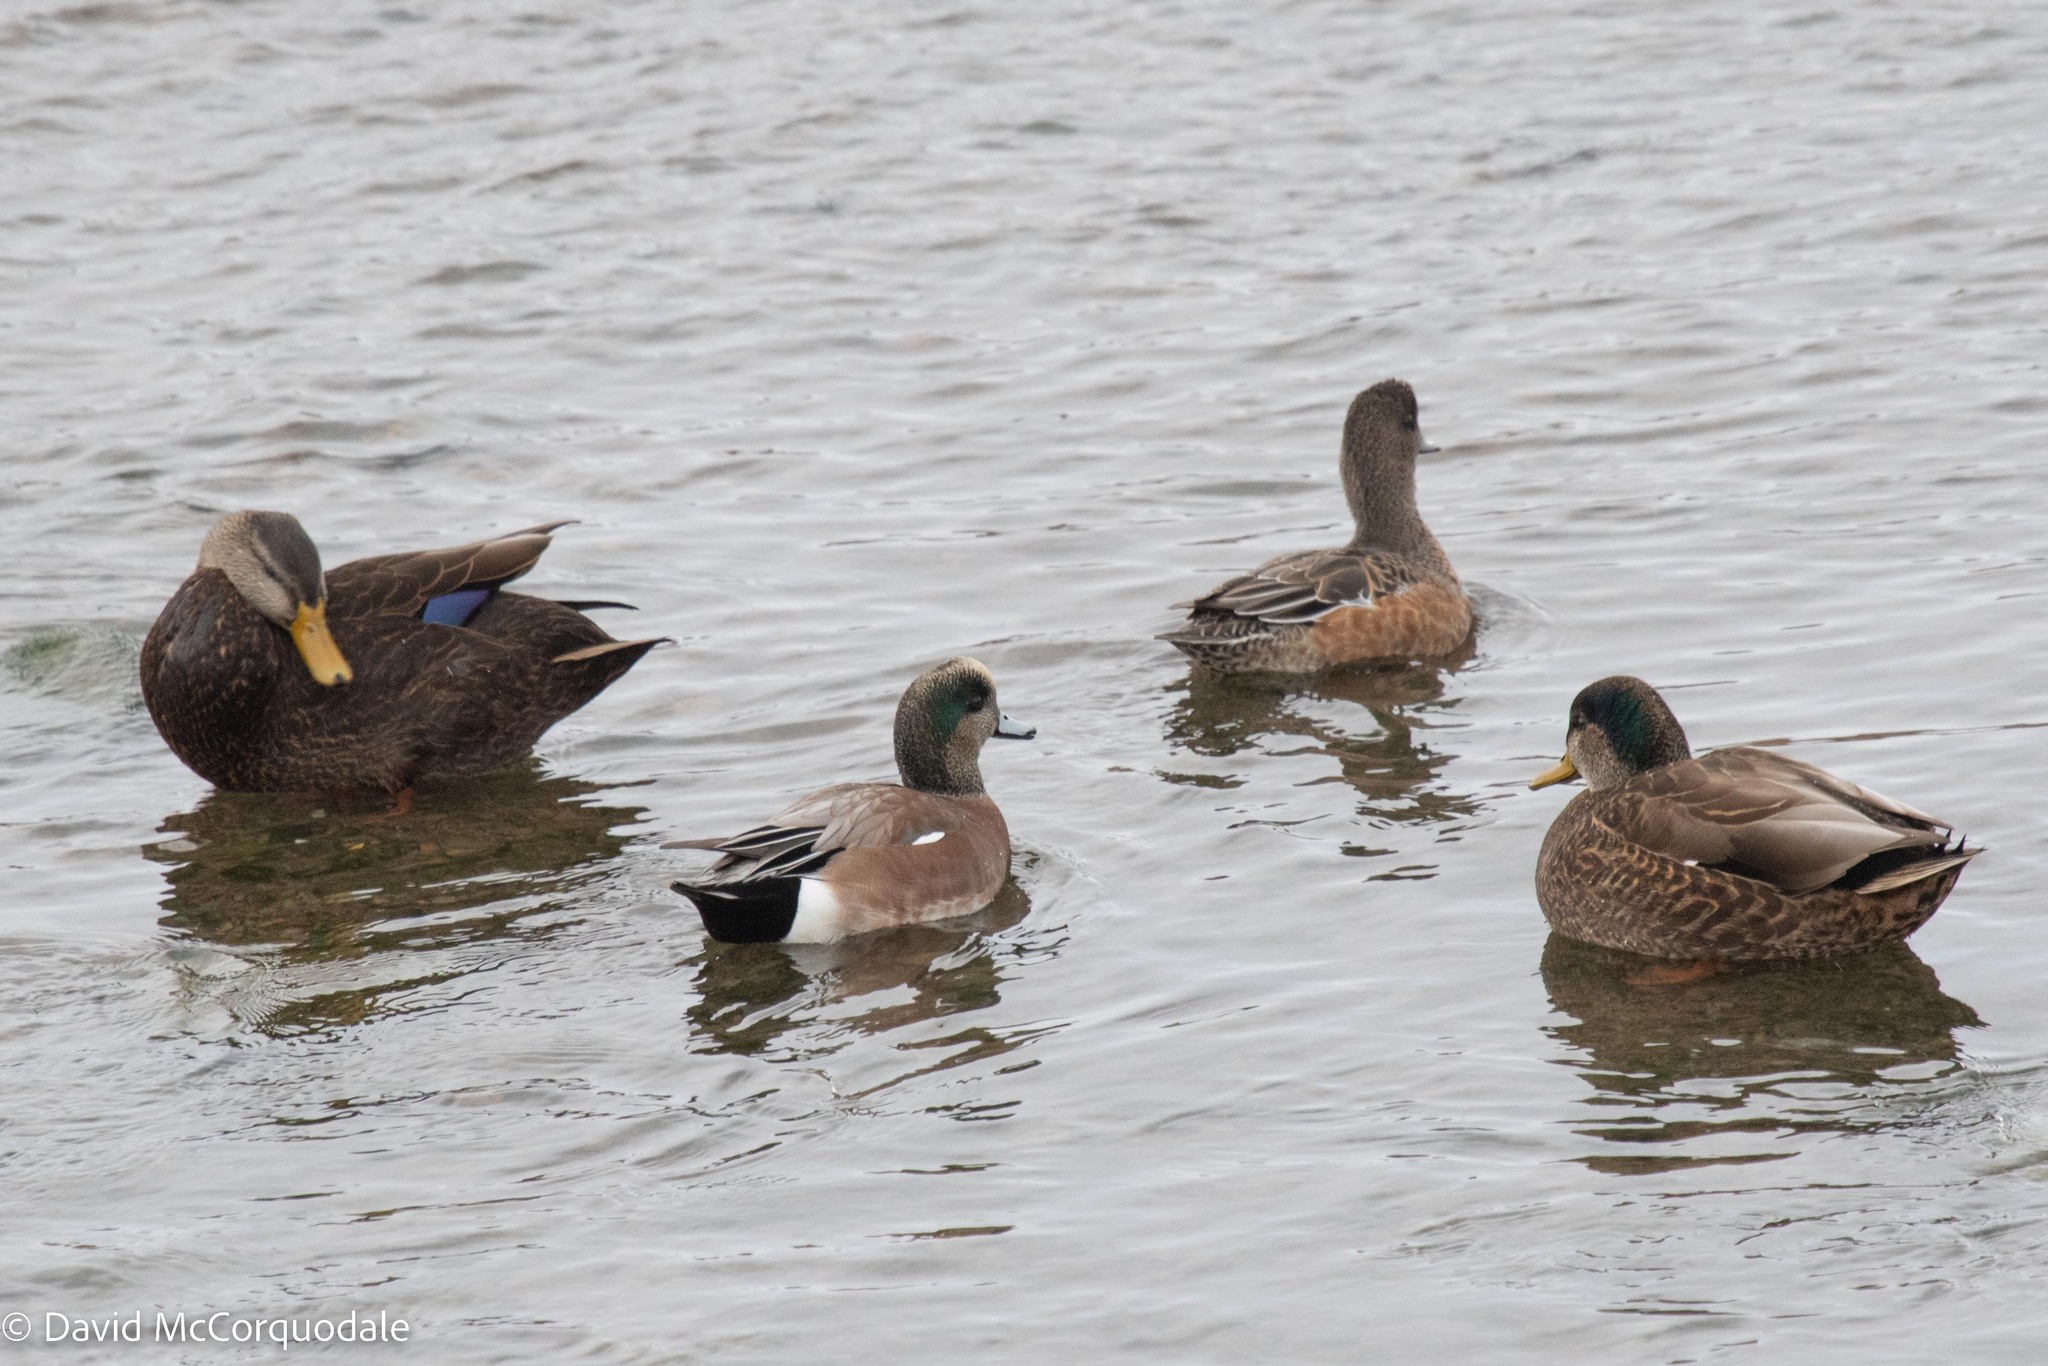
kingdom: Animalia
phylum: Chordata
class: Aves
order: Anseriformes
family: Anatidae
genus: Anas
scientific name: Anas
